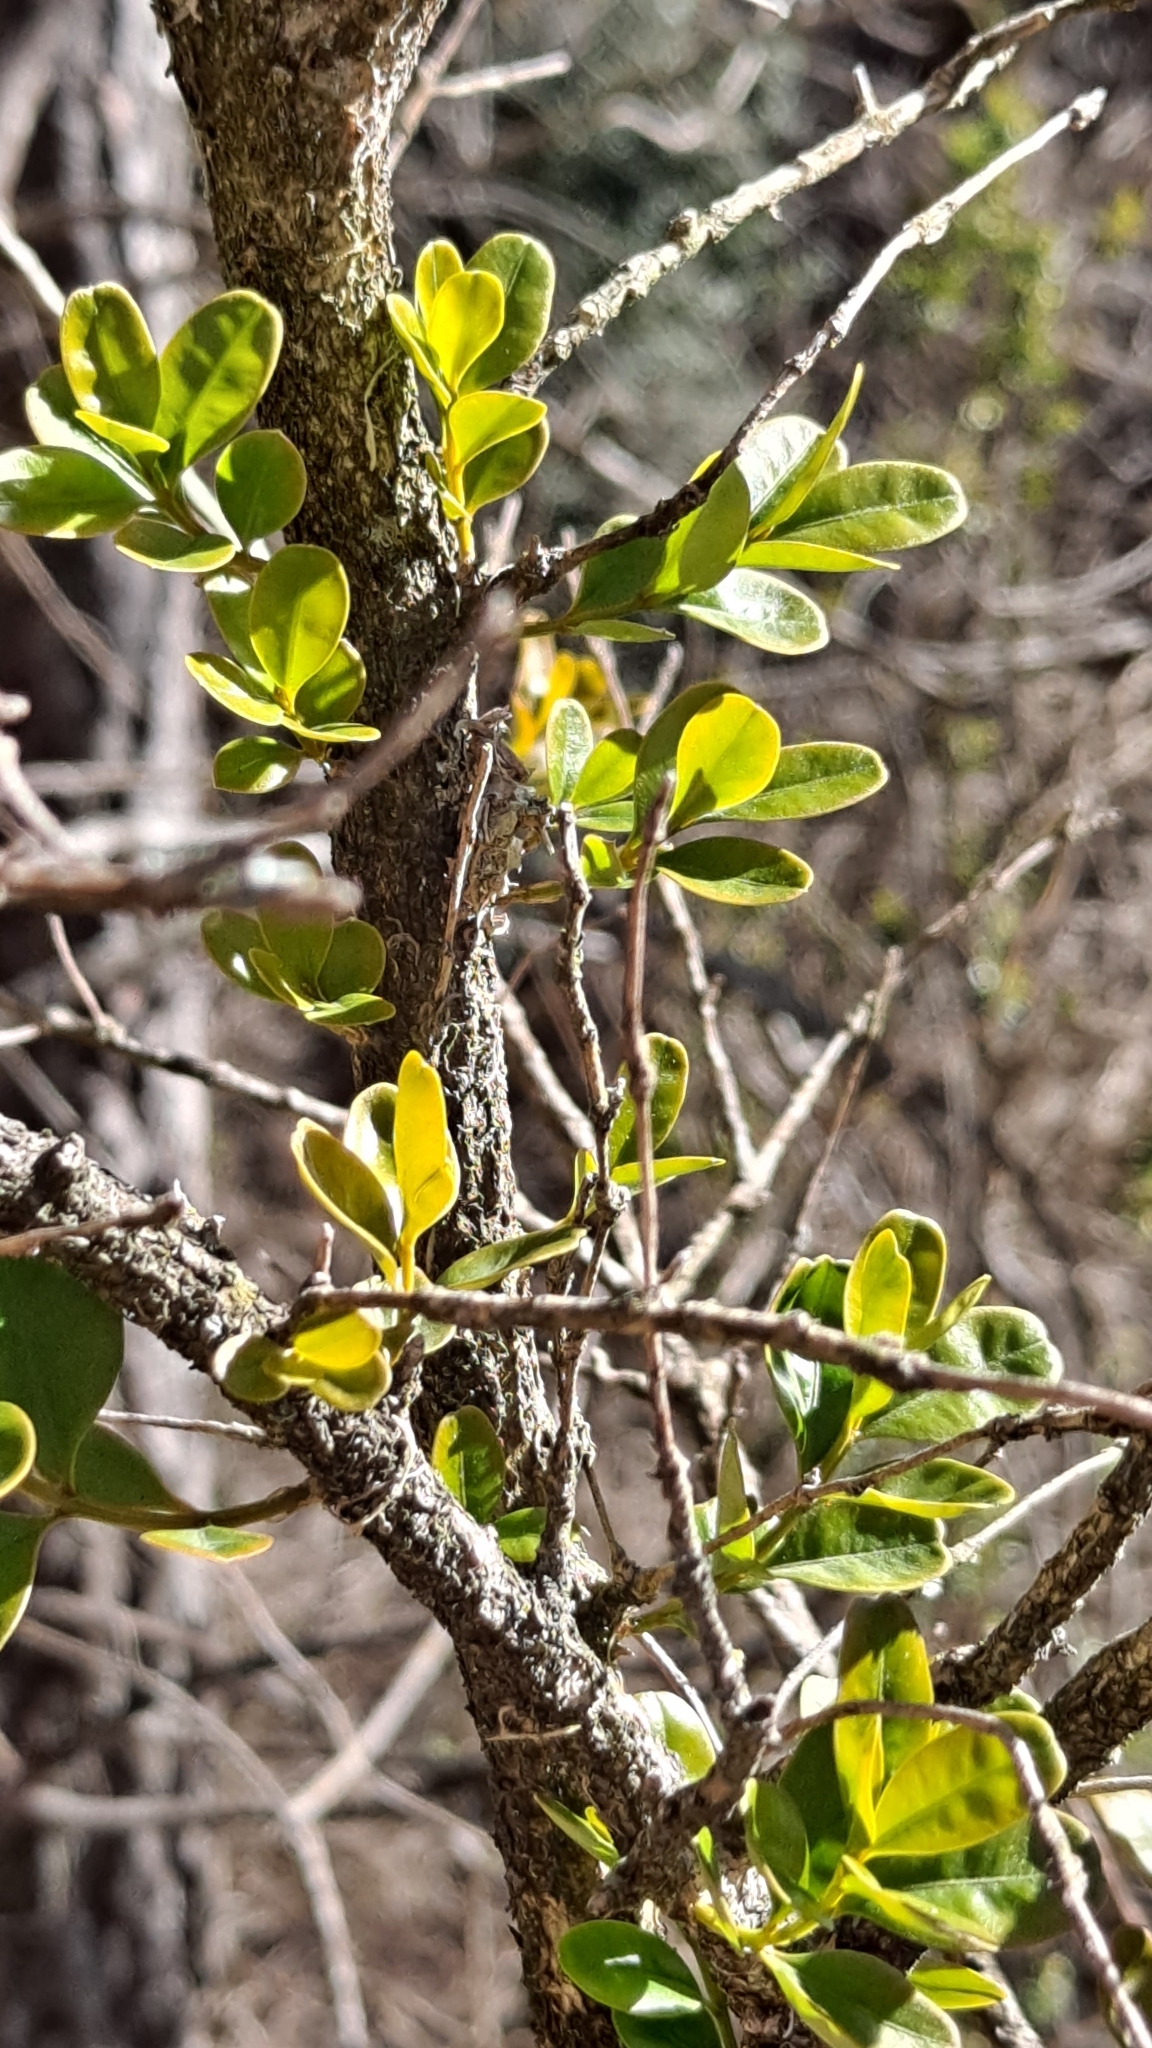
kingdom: Plantae
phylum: Tracheophyta
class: Magnoliopsida
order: Buxales
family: Buxaceae
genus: Buxus
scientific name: Buxus sempervirens
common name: Box
